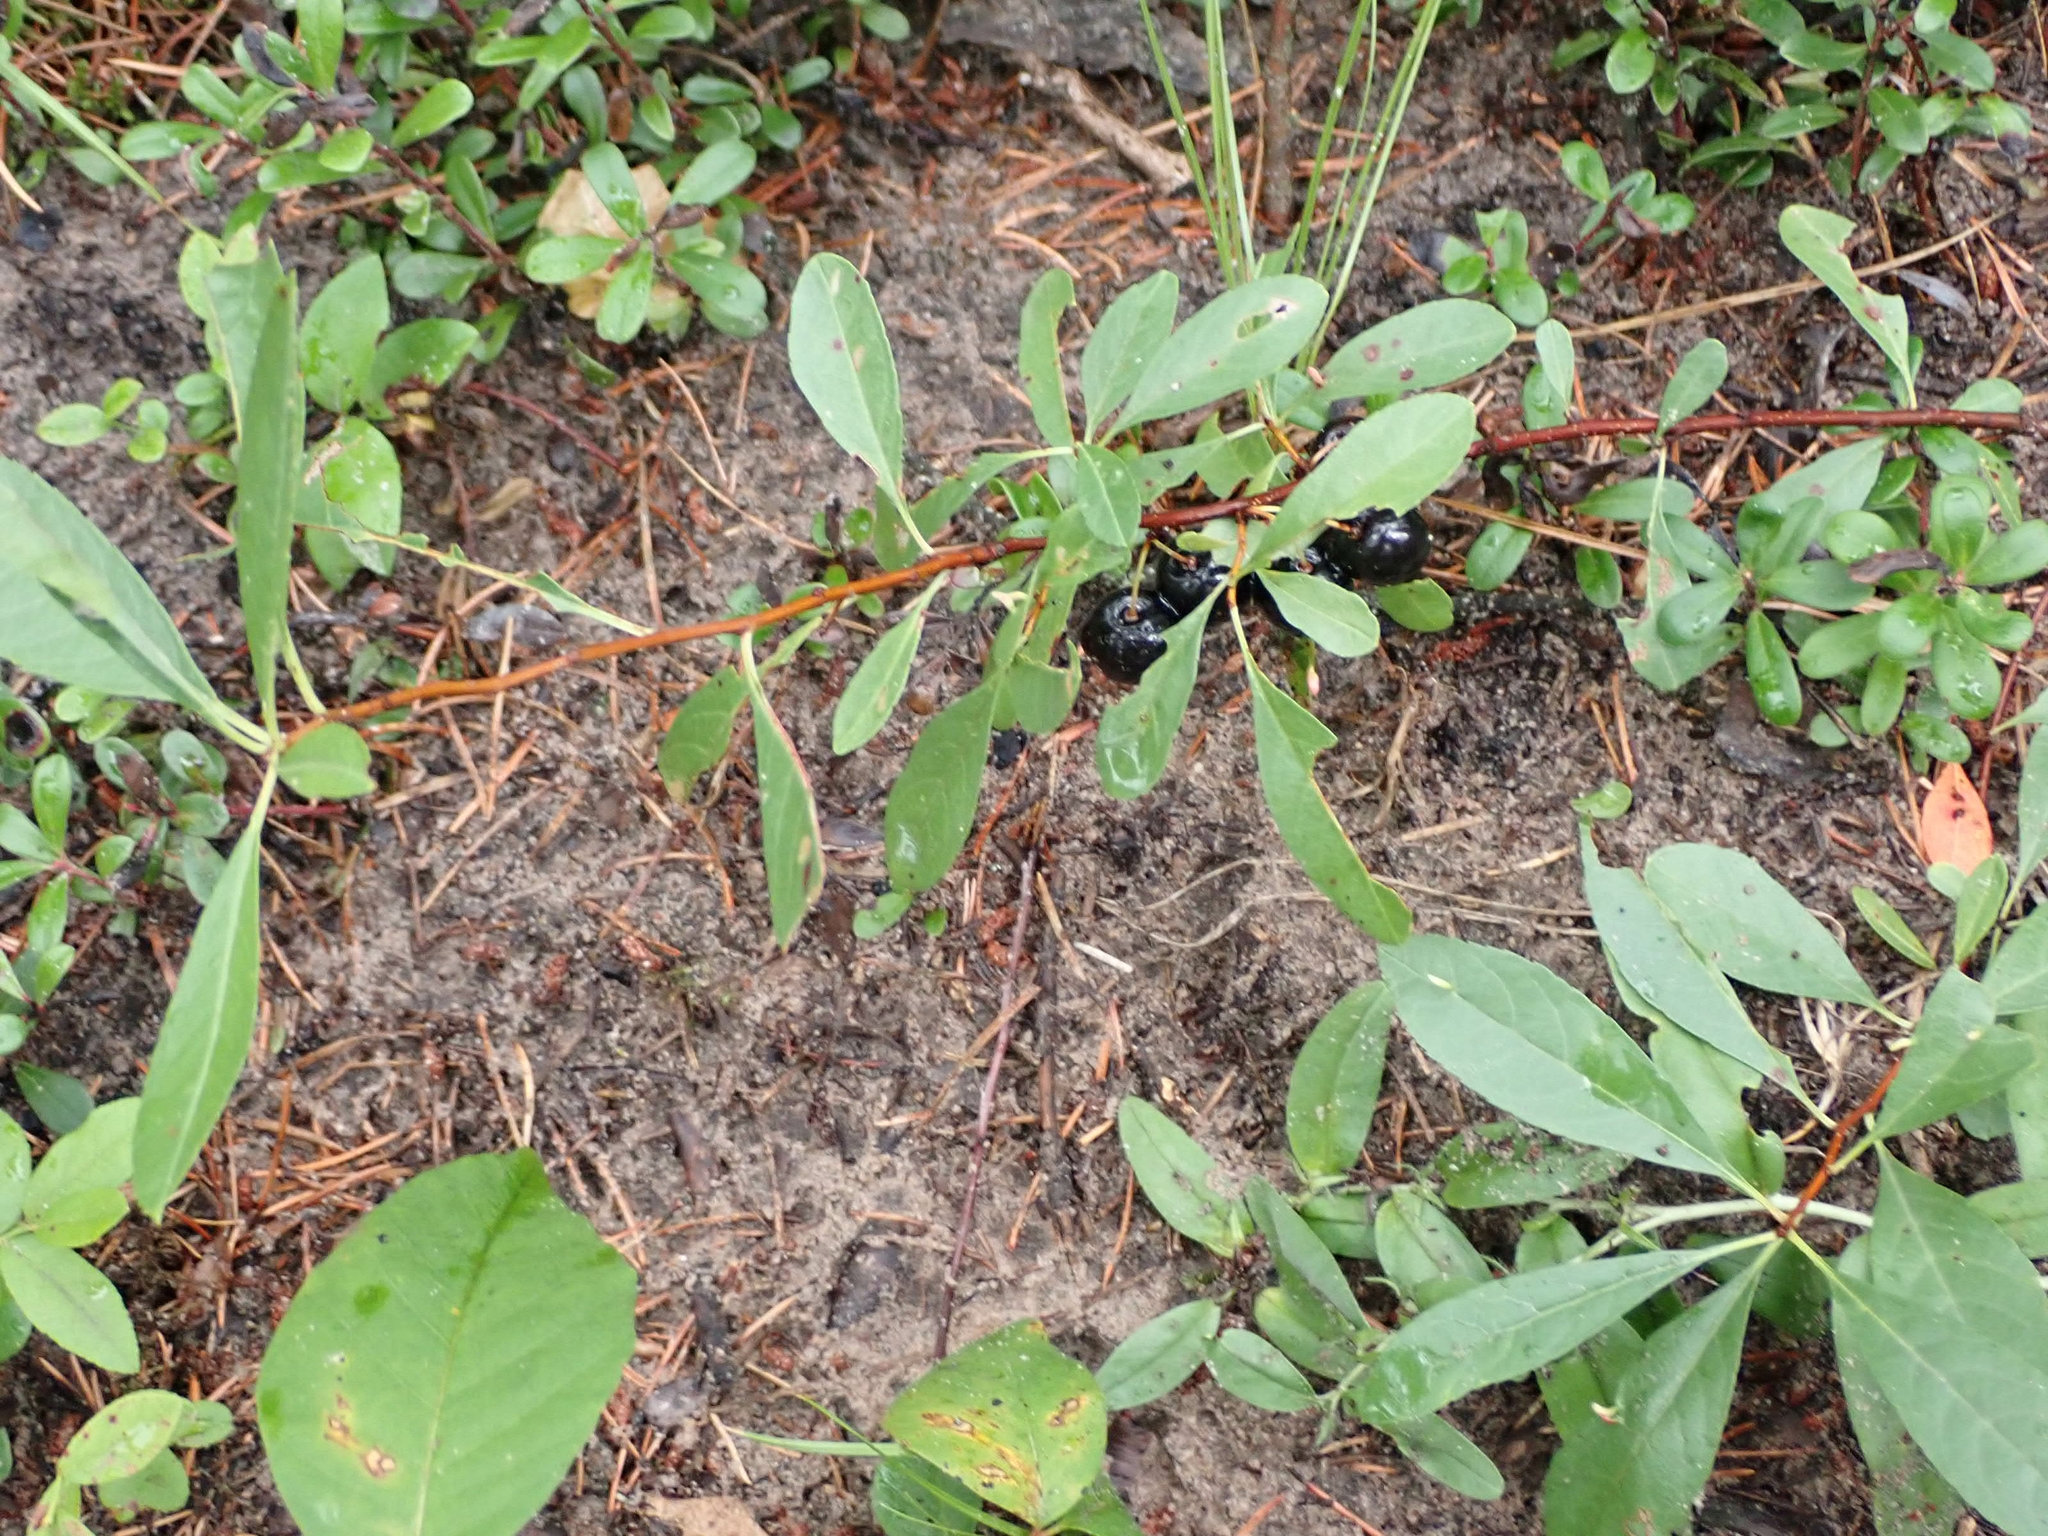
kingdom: Plantae
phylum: Tracheophyta
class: Magnoliopsida
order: Rosales
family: Rosaceae
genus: Prunus
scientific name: Prunus pumila
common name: Dwarf cherry
